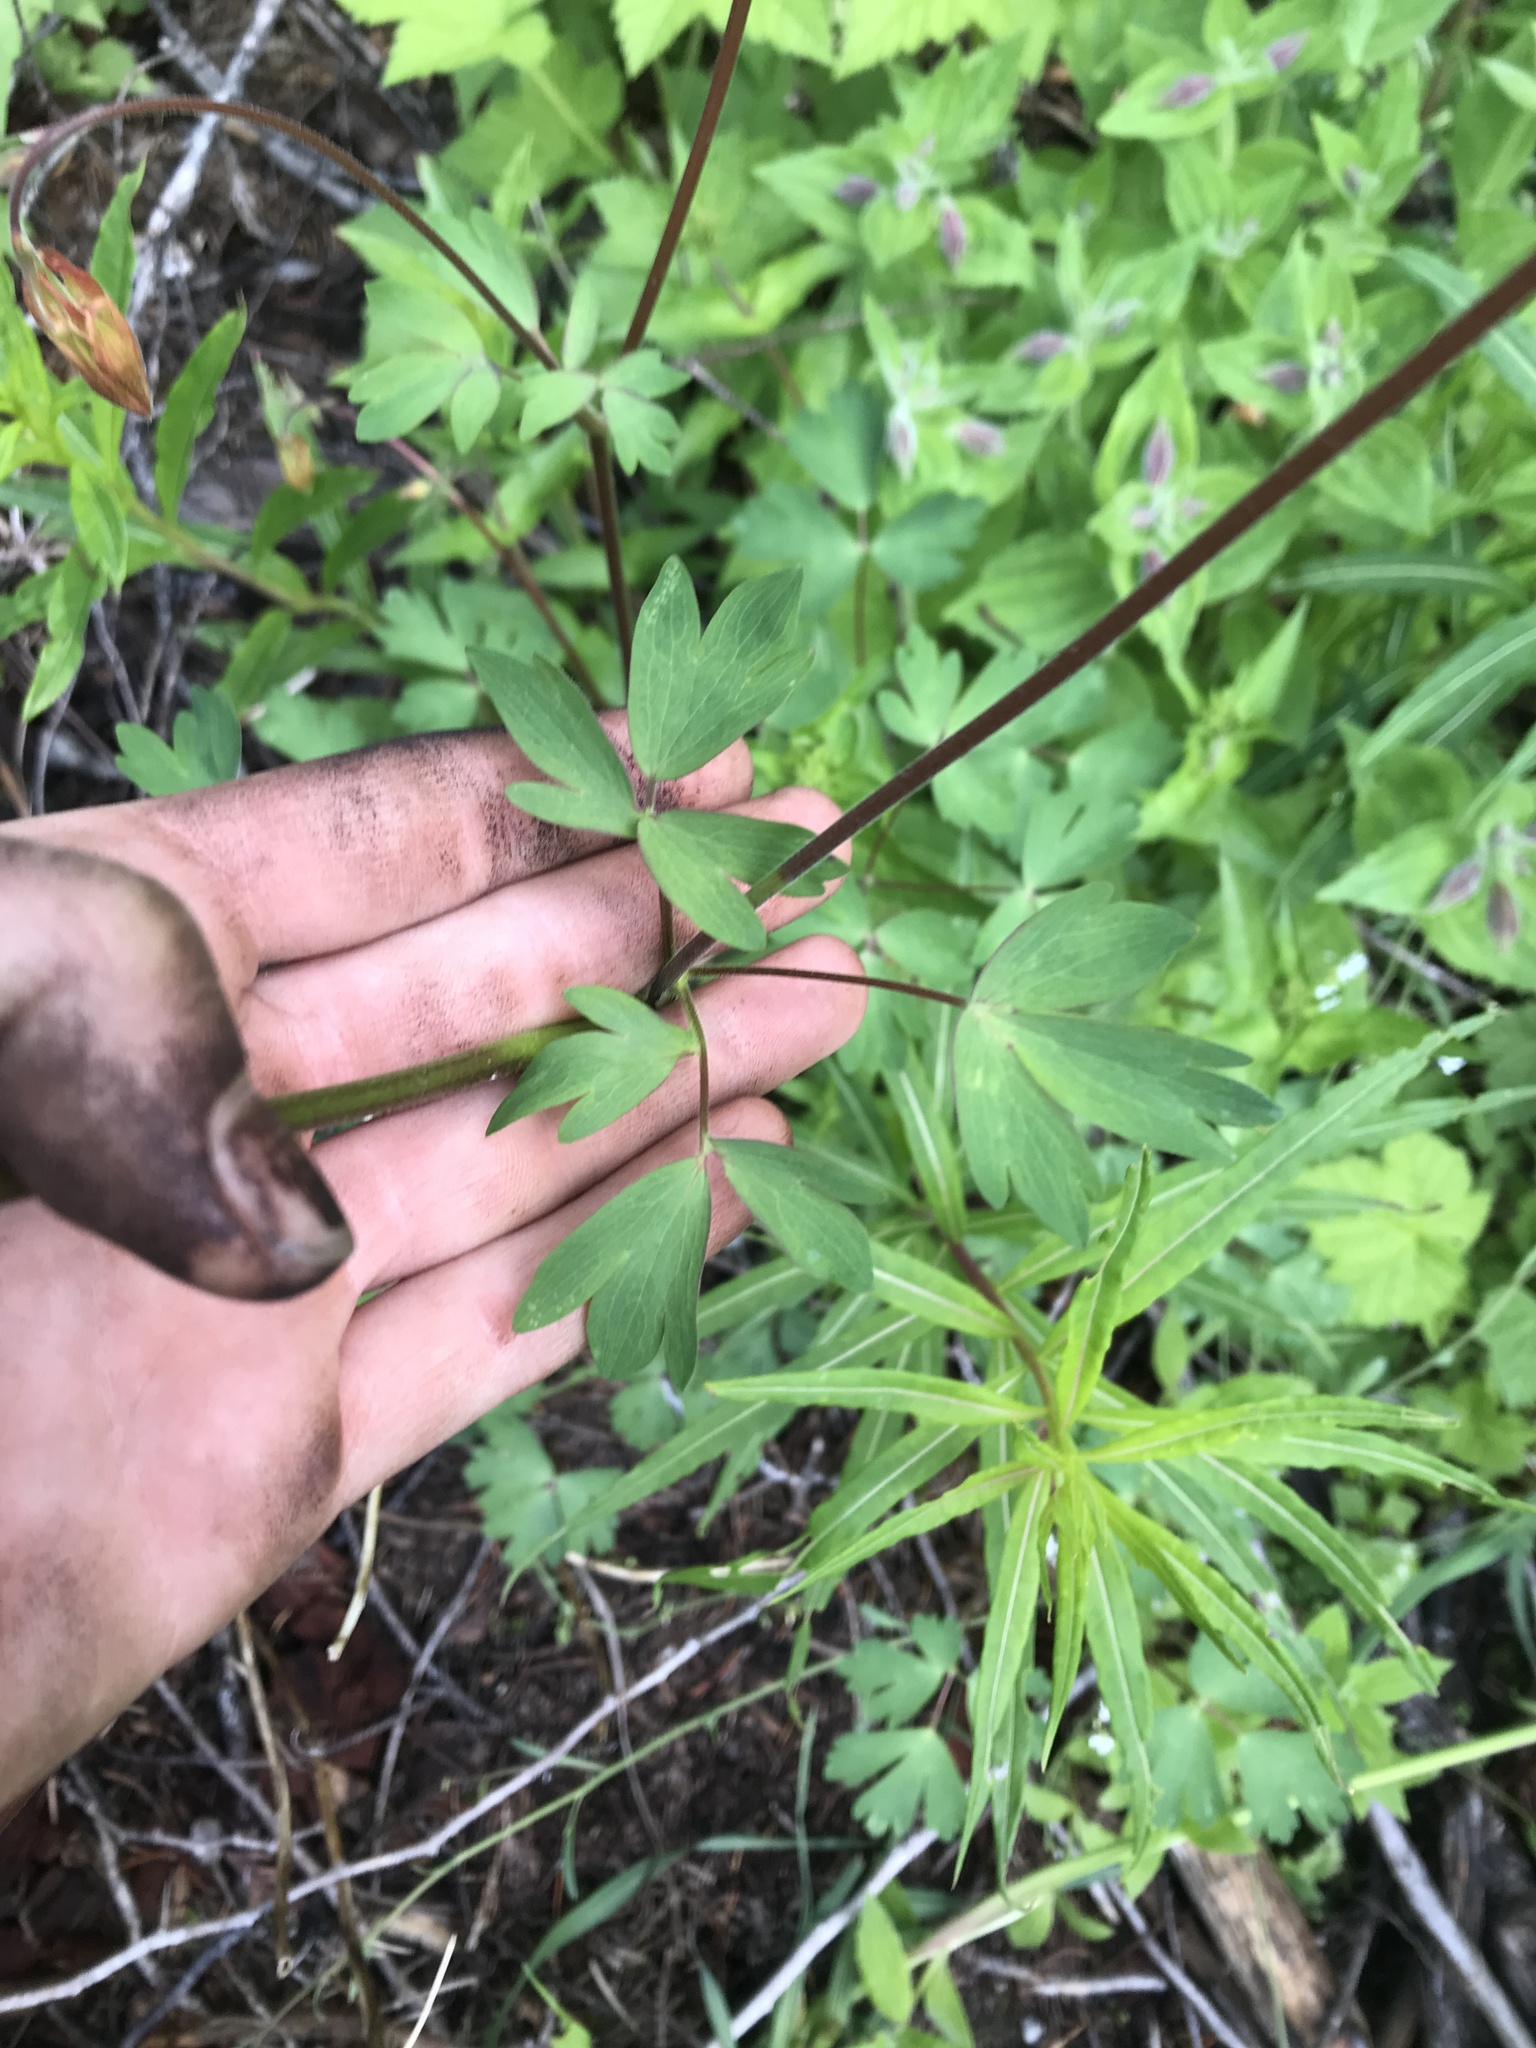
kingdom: Plantae
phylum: Tracheophyta
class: Magnoliopsida
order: Ranunculales
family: Ranunculaceae
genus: Aquilegia
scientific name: Aquilegia formosa
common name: Sitka columbine
